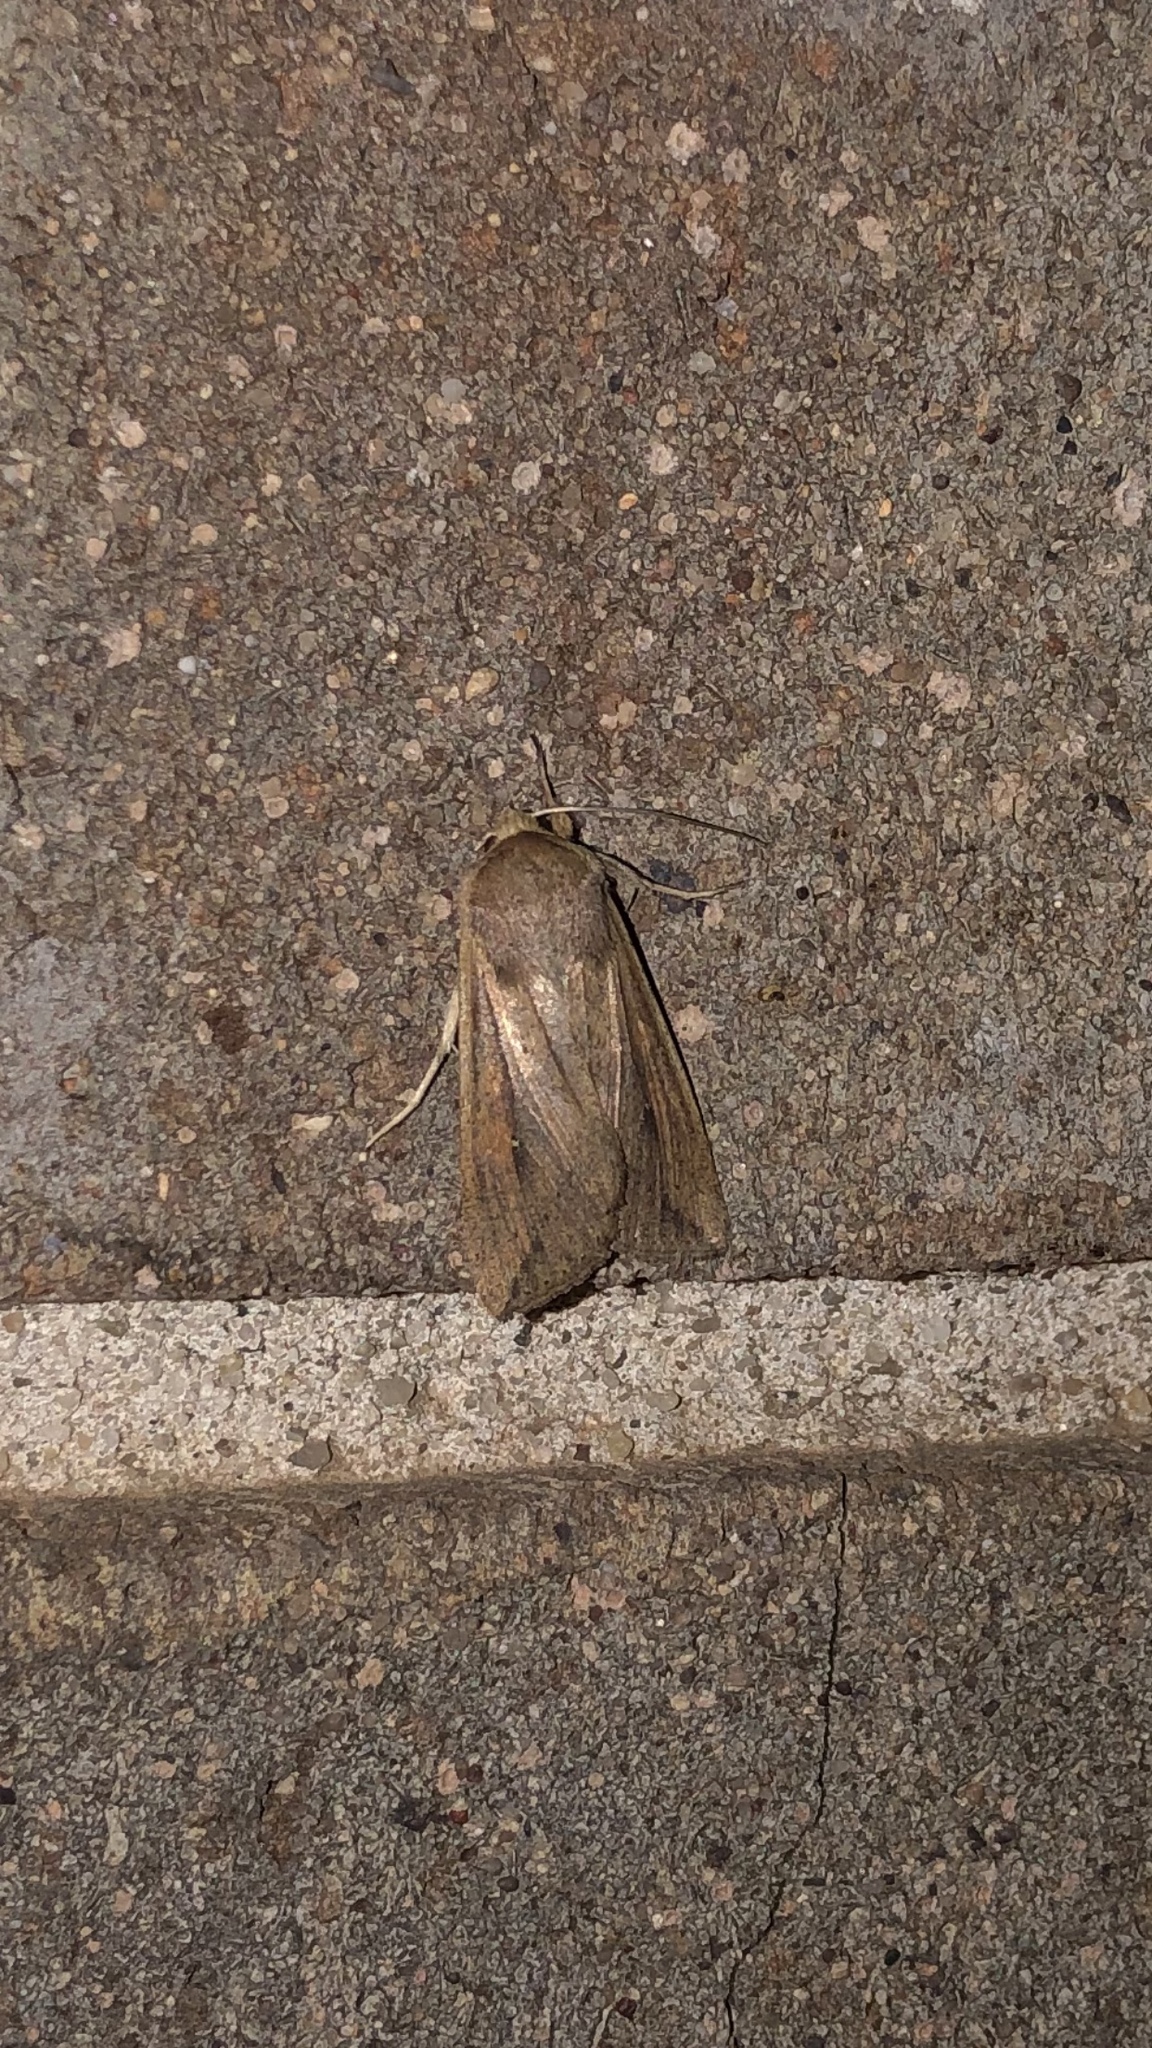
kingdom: Animalia
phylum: Arthropoda
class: Insecta
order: Lepidoptera
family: Noctuidae
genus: Mythimna
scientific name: Mythimna unipuncta
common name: White-speck
